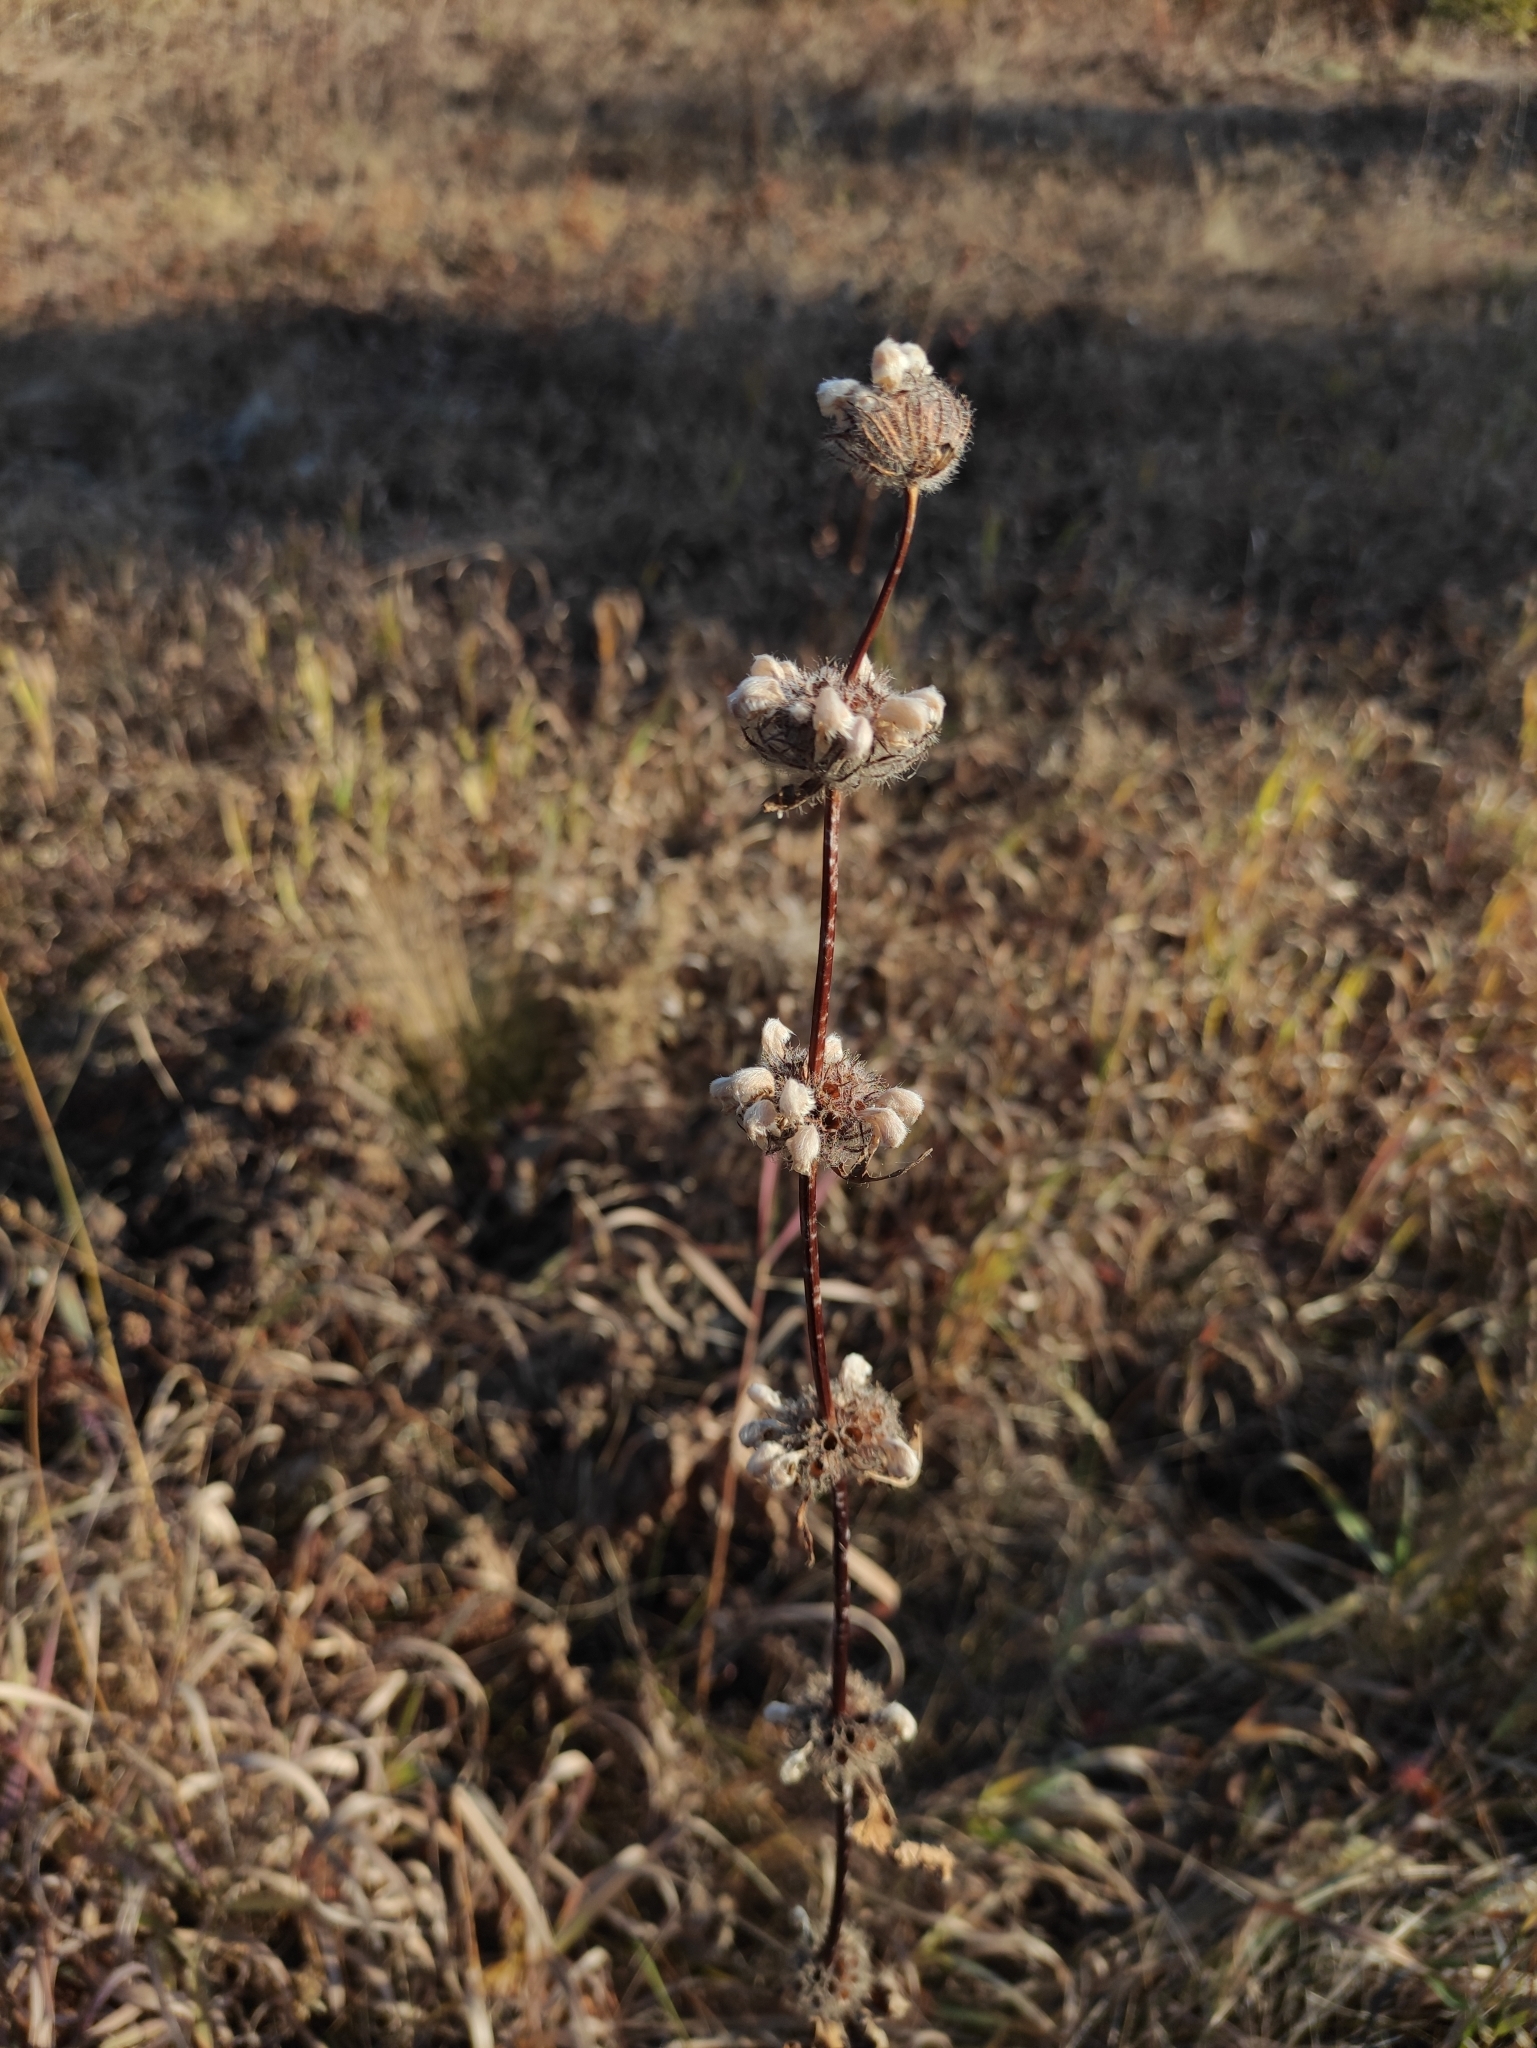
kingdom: Plantae
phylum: Tracheophyta
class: Magnoliopsida
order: Lamiales
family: Lamiaceae
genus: Phlomoides
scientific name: Phlomoides tuberosa
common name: Tuberous jerusalem sage
